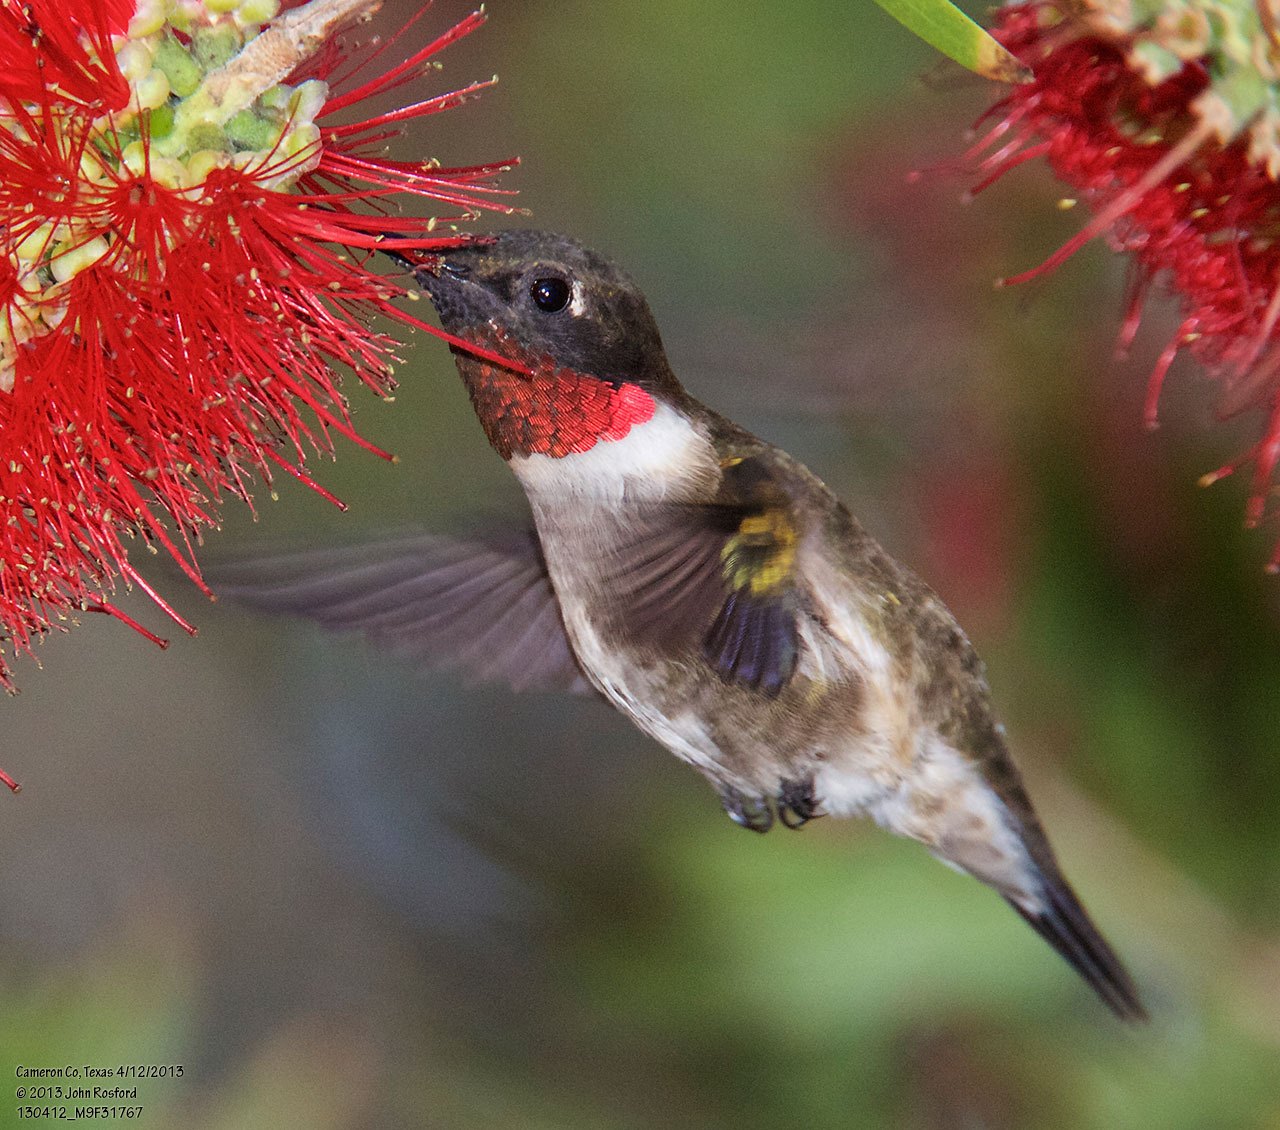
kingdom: Animalia
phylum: Chordata
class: Aves
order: Apodiformes
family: Trochilidae
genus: Archilochus
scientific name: Archilochus colubris
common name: Ruby-throated hummingbird
